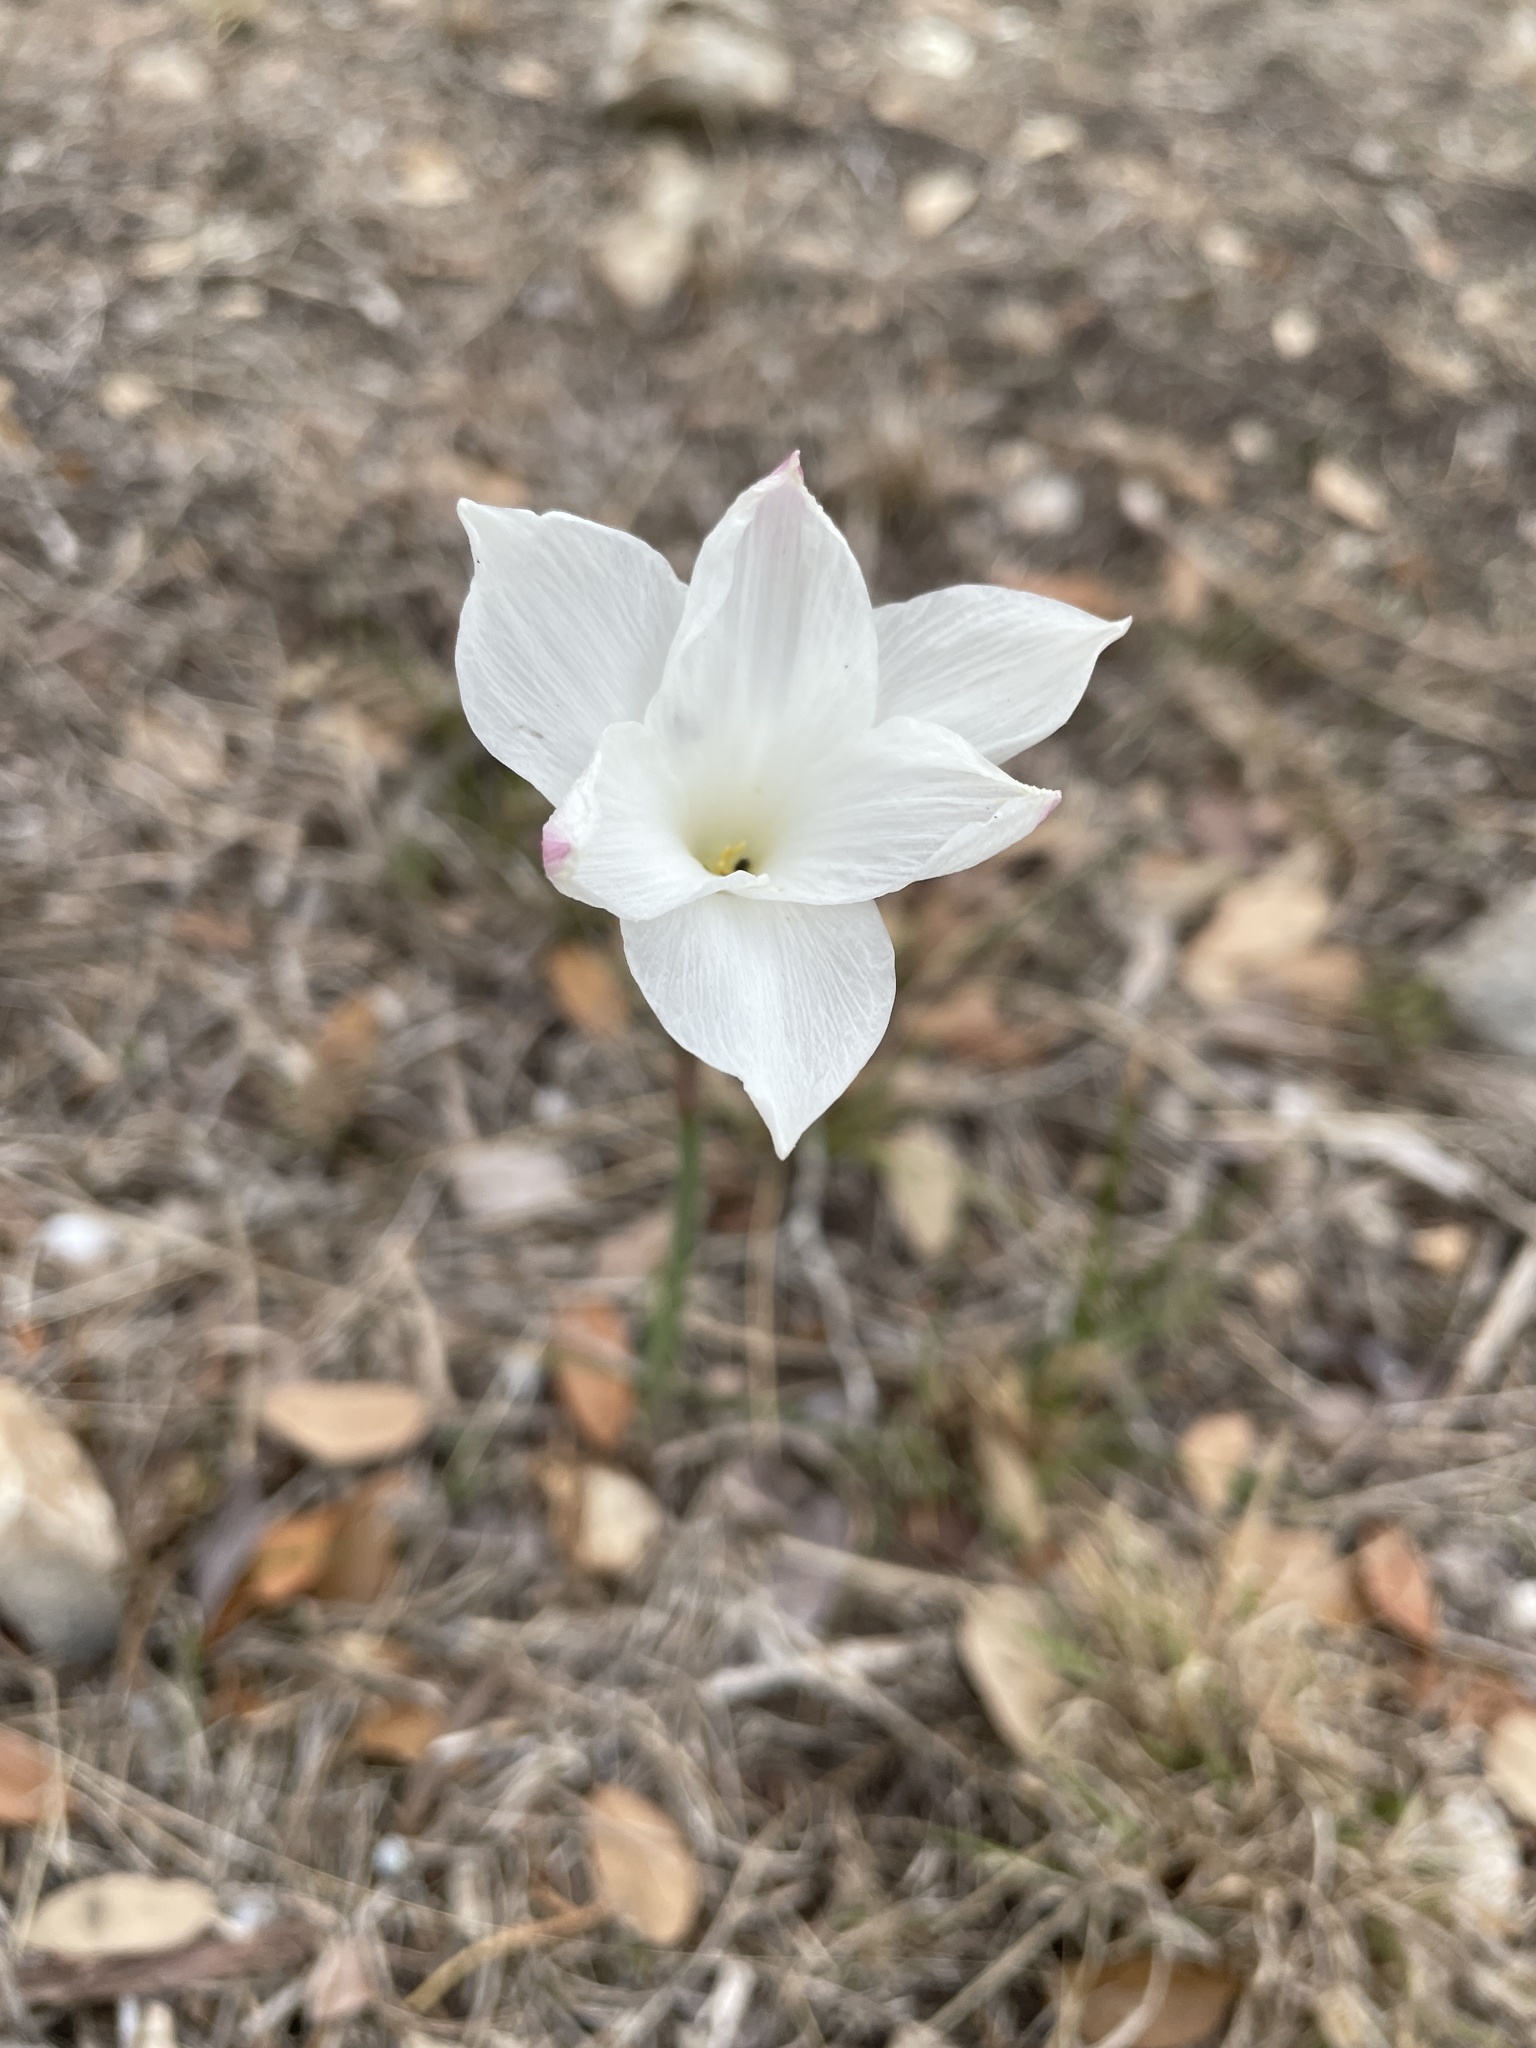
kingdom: Plantae
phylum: Tracheophyta
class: Liliopsida
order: Asparagales
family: Amaryllidaceae
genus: Zephyranthes
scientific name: Zephyranthes drummondii
